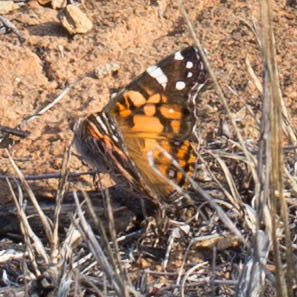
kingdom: Animalia
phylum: Arthropoda
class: Insecta
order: Lepidoptera
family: Nymphalidae
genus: Vanessa
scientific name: Vanessa virginiensis
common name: American lady
